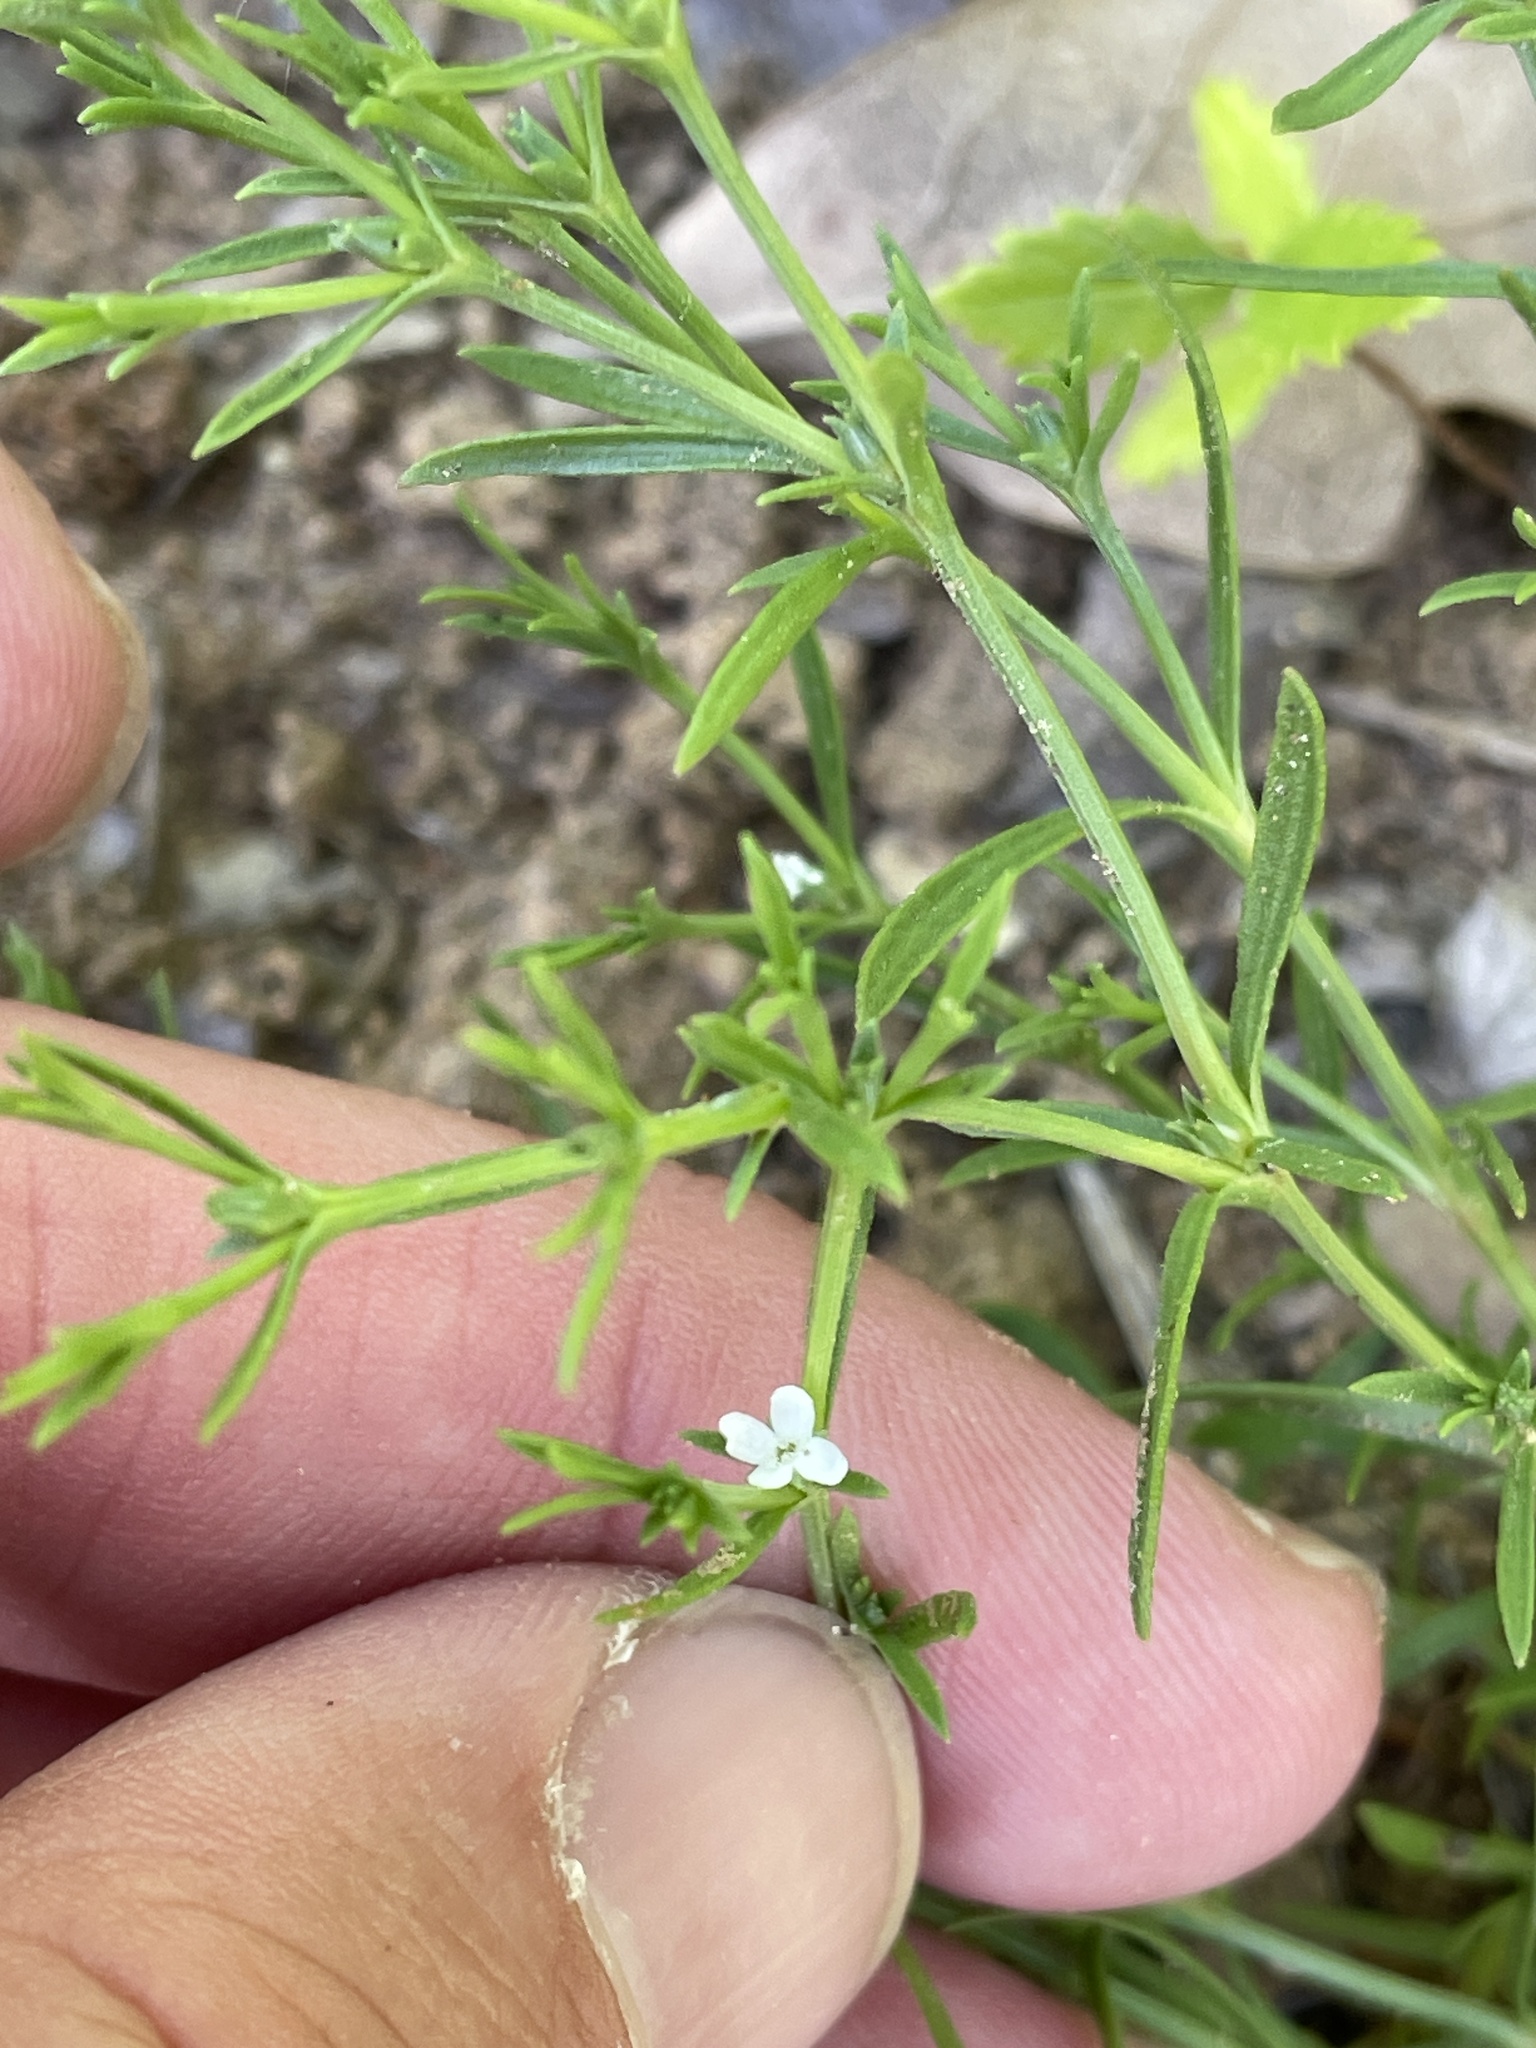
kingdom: Plantae
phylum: Tracheophyta
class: Magnoliopsida
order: Lamiales
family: Tetrachondraceae
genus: Polypremum
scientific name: Polypremum procumbens
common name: Juniper-leaf
